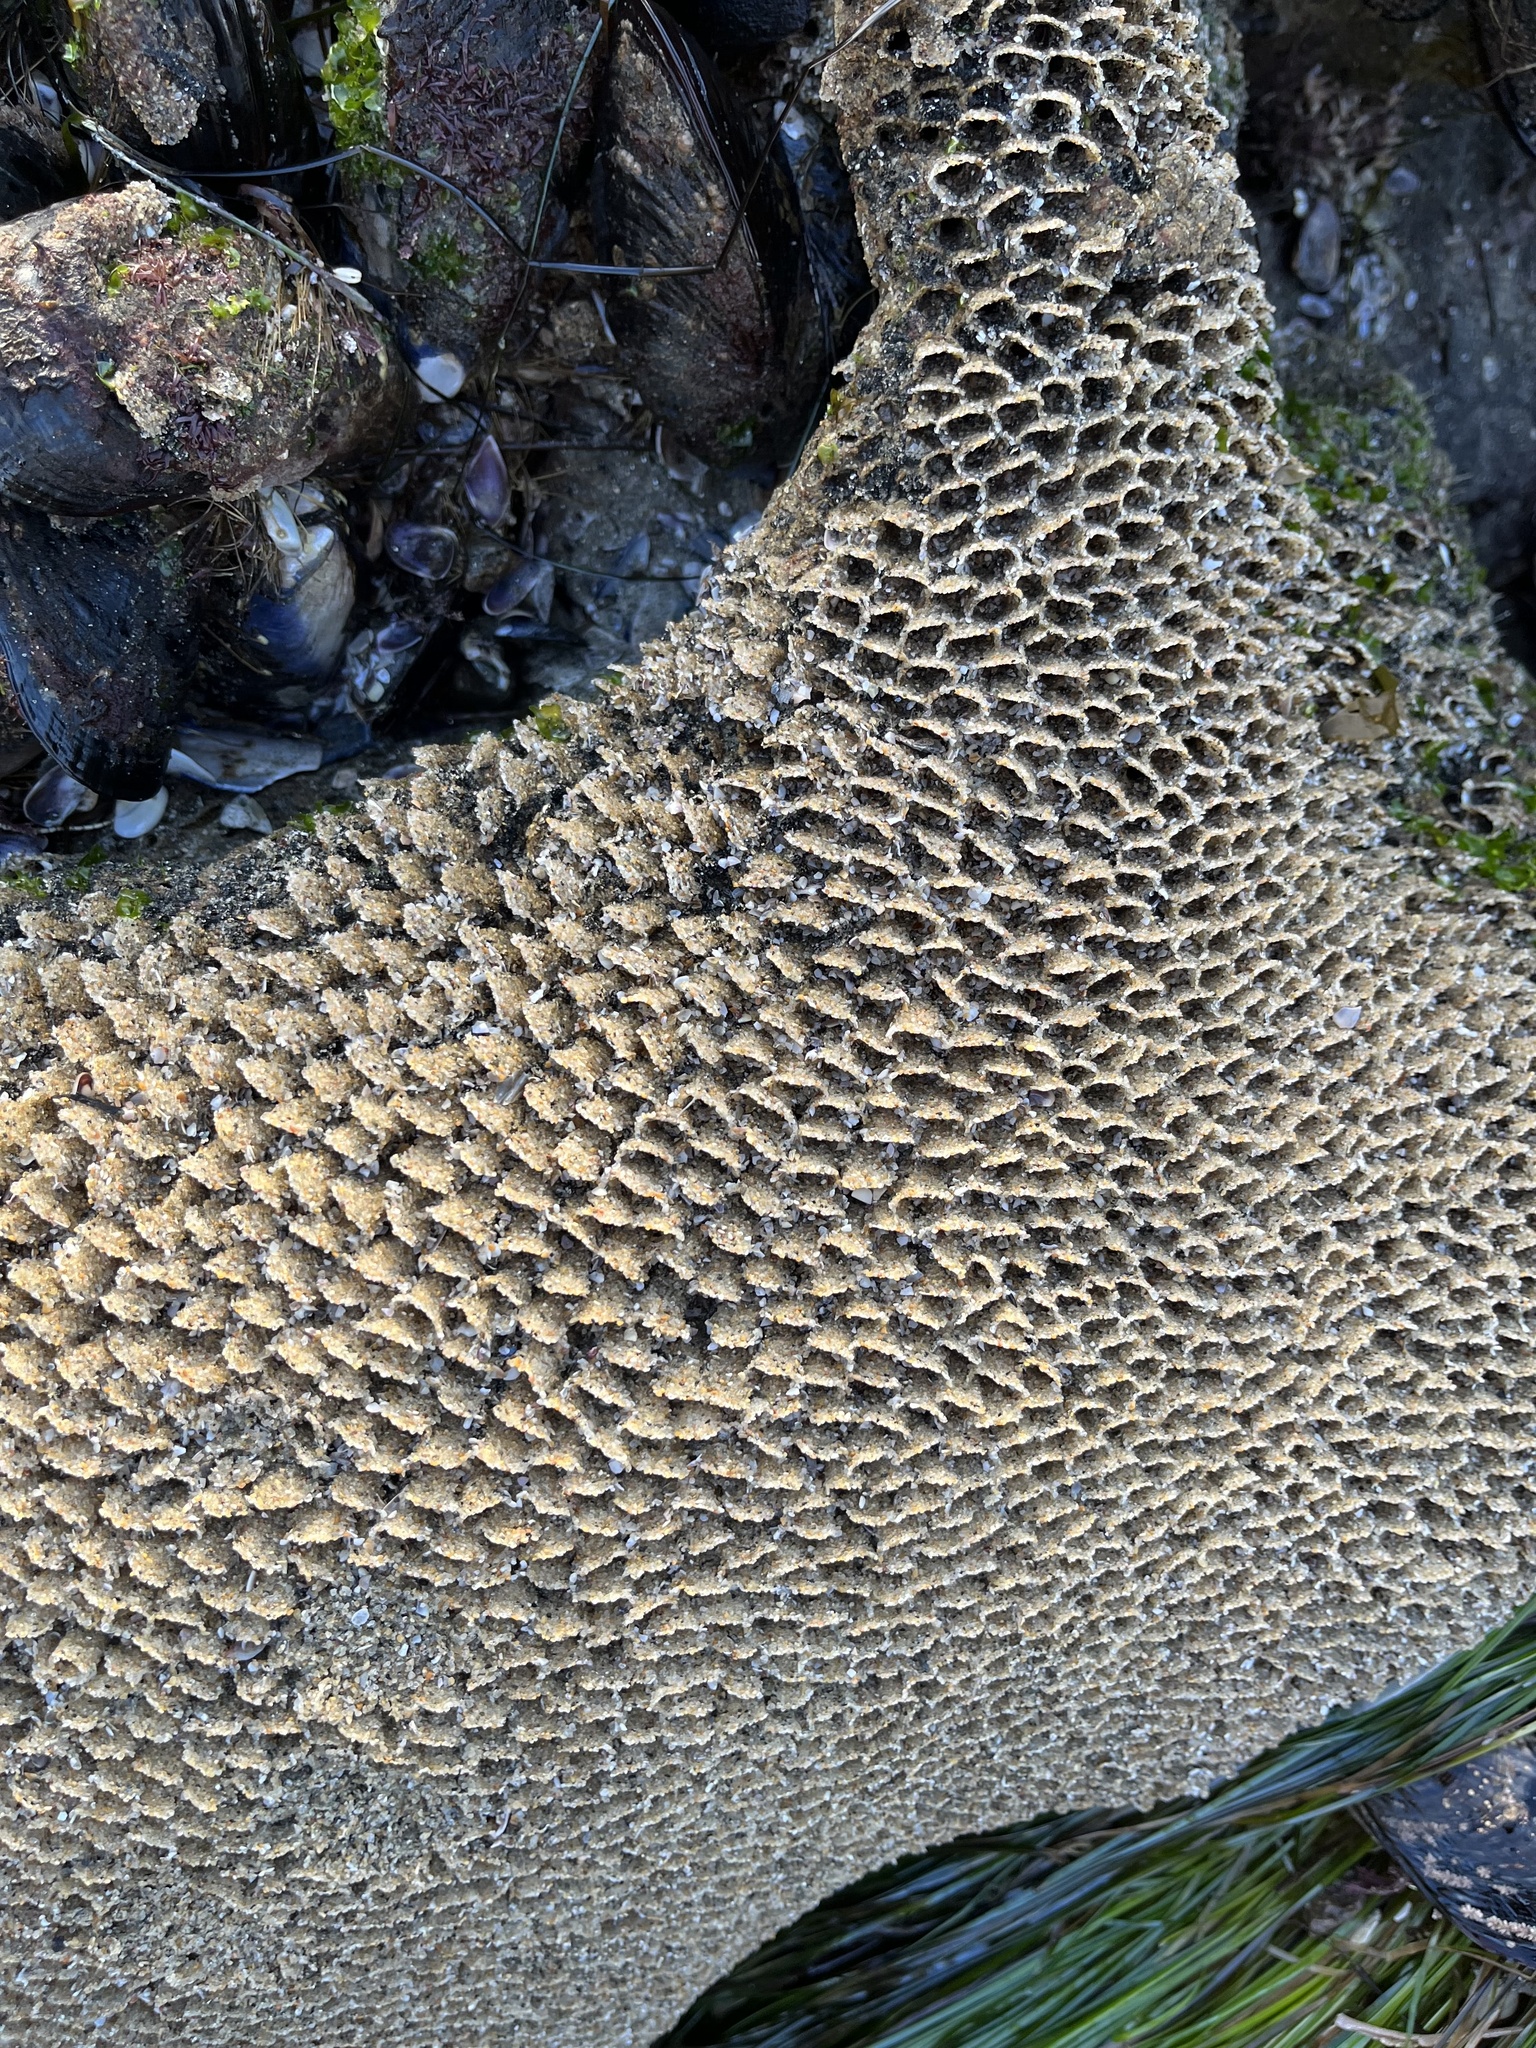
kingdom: Animalia
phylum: Annelida
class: Polychaeta
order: Sabellida
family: Sabellariidae
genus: Phragmatopoma
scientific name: Phragmatopoma californica
